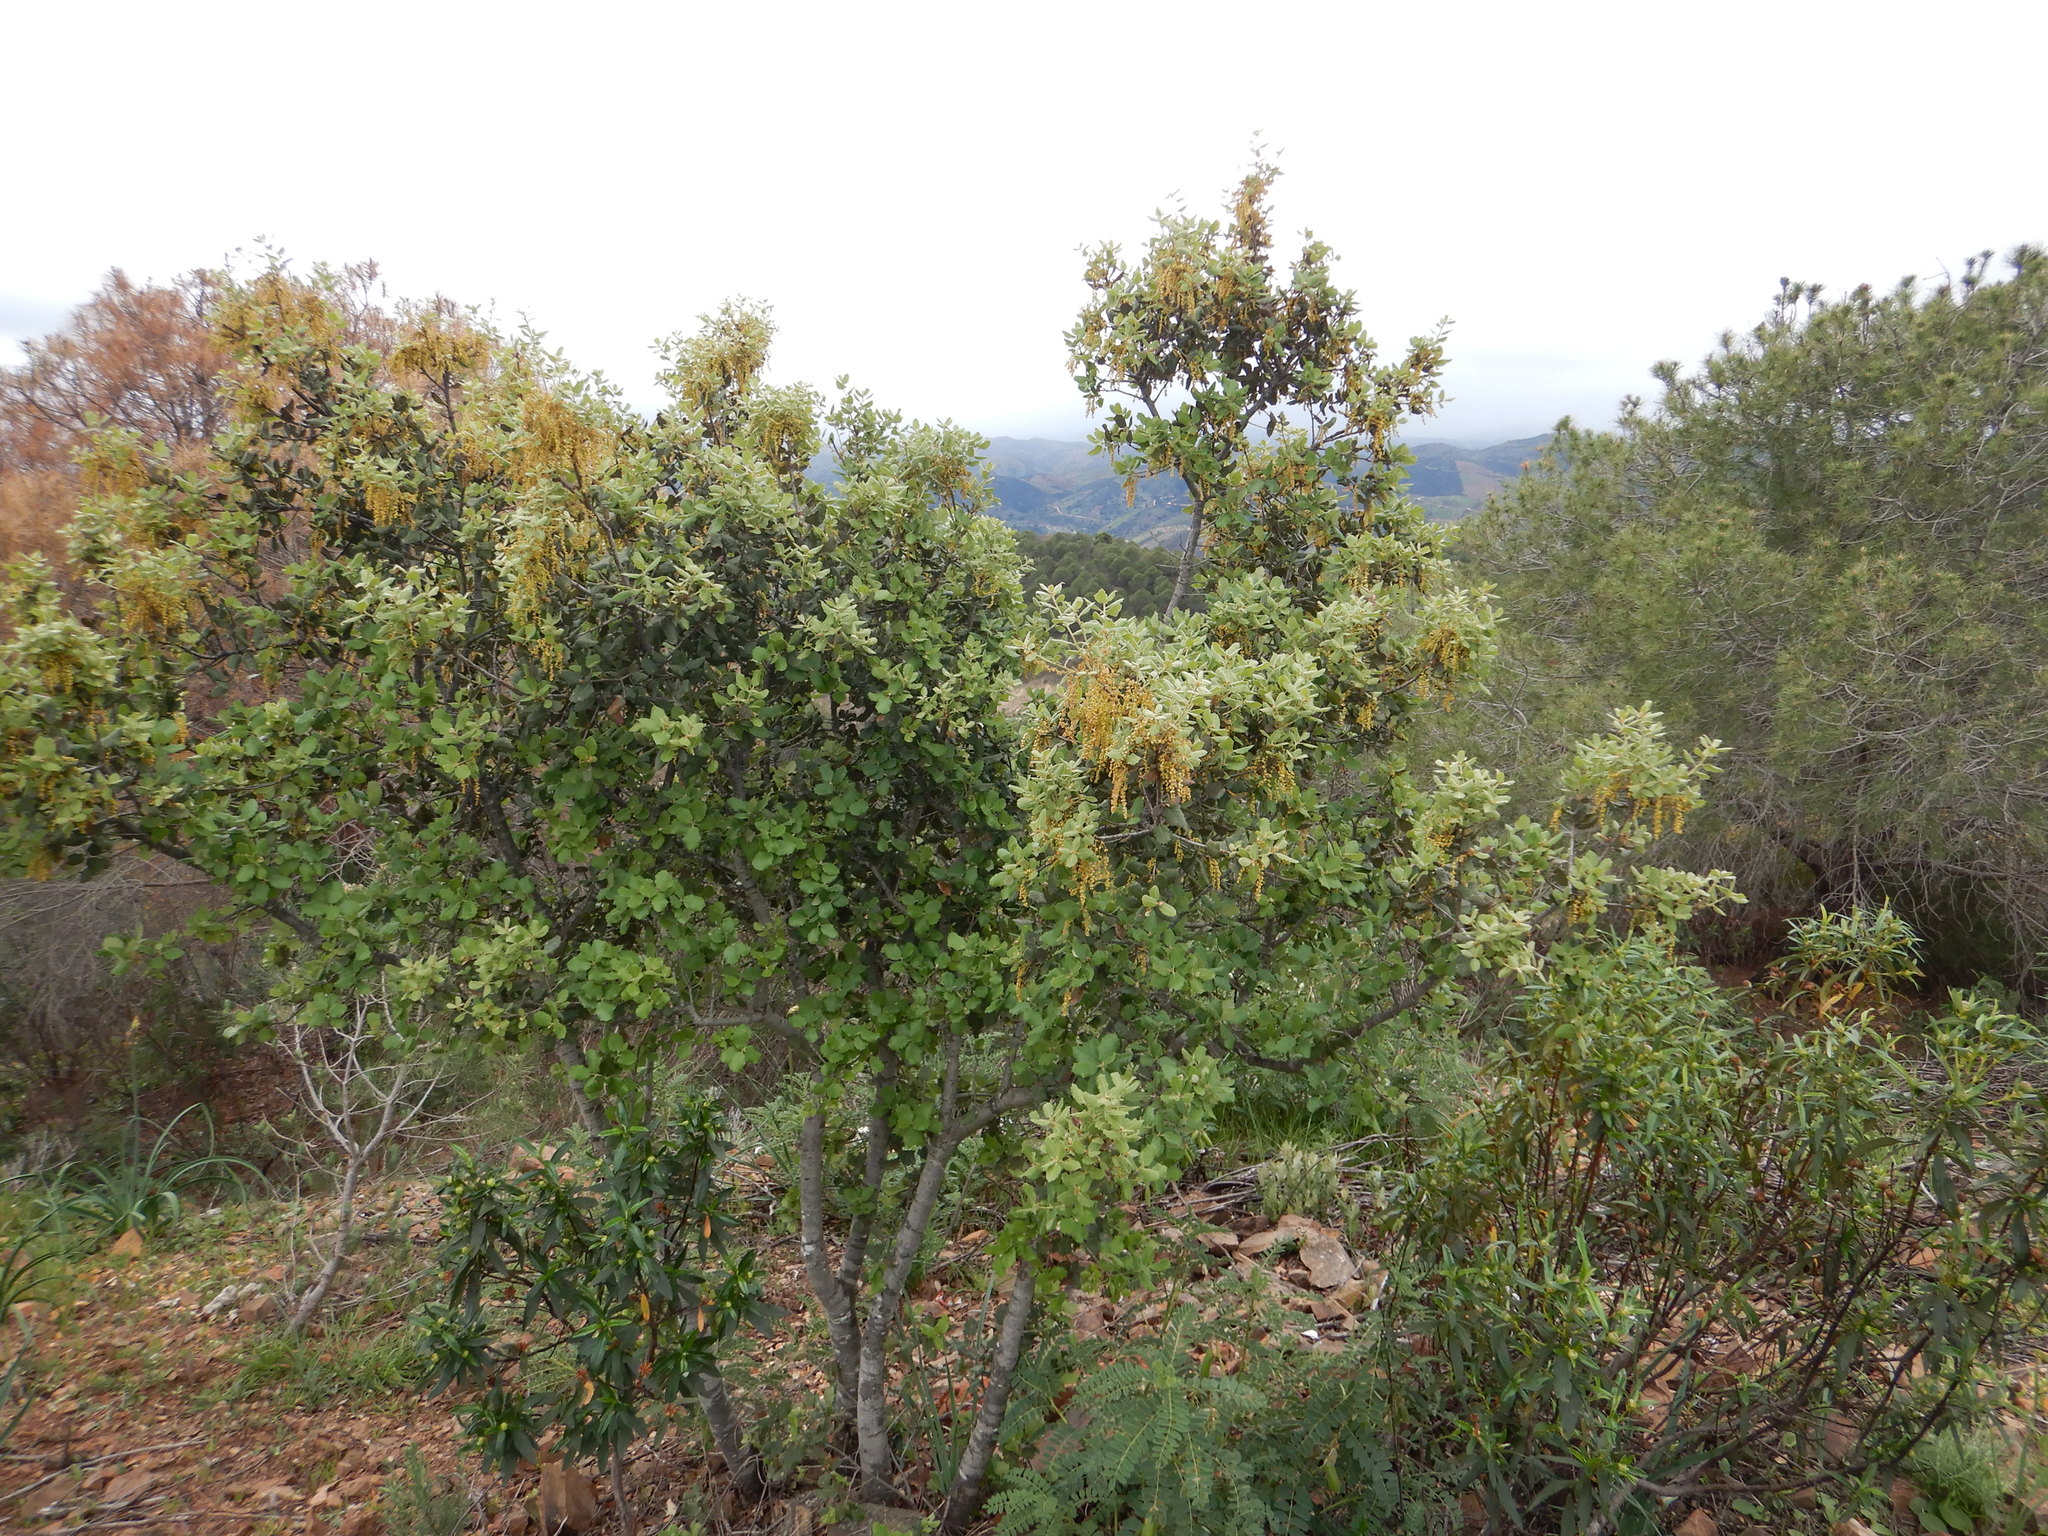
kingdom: Plantae
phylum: Tracheophyta
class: Magnoliopsida
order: Fagales
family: Fagaceae
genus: Quercus
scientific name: Quercus rotundifolia
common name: Holm oak
